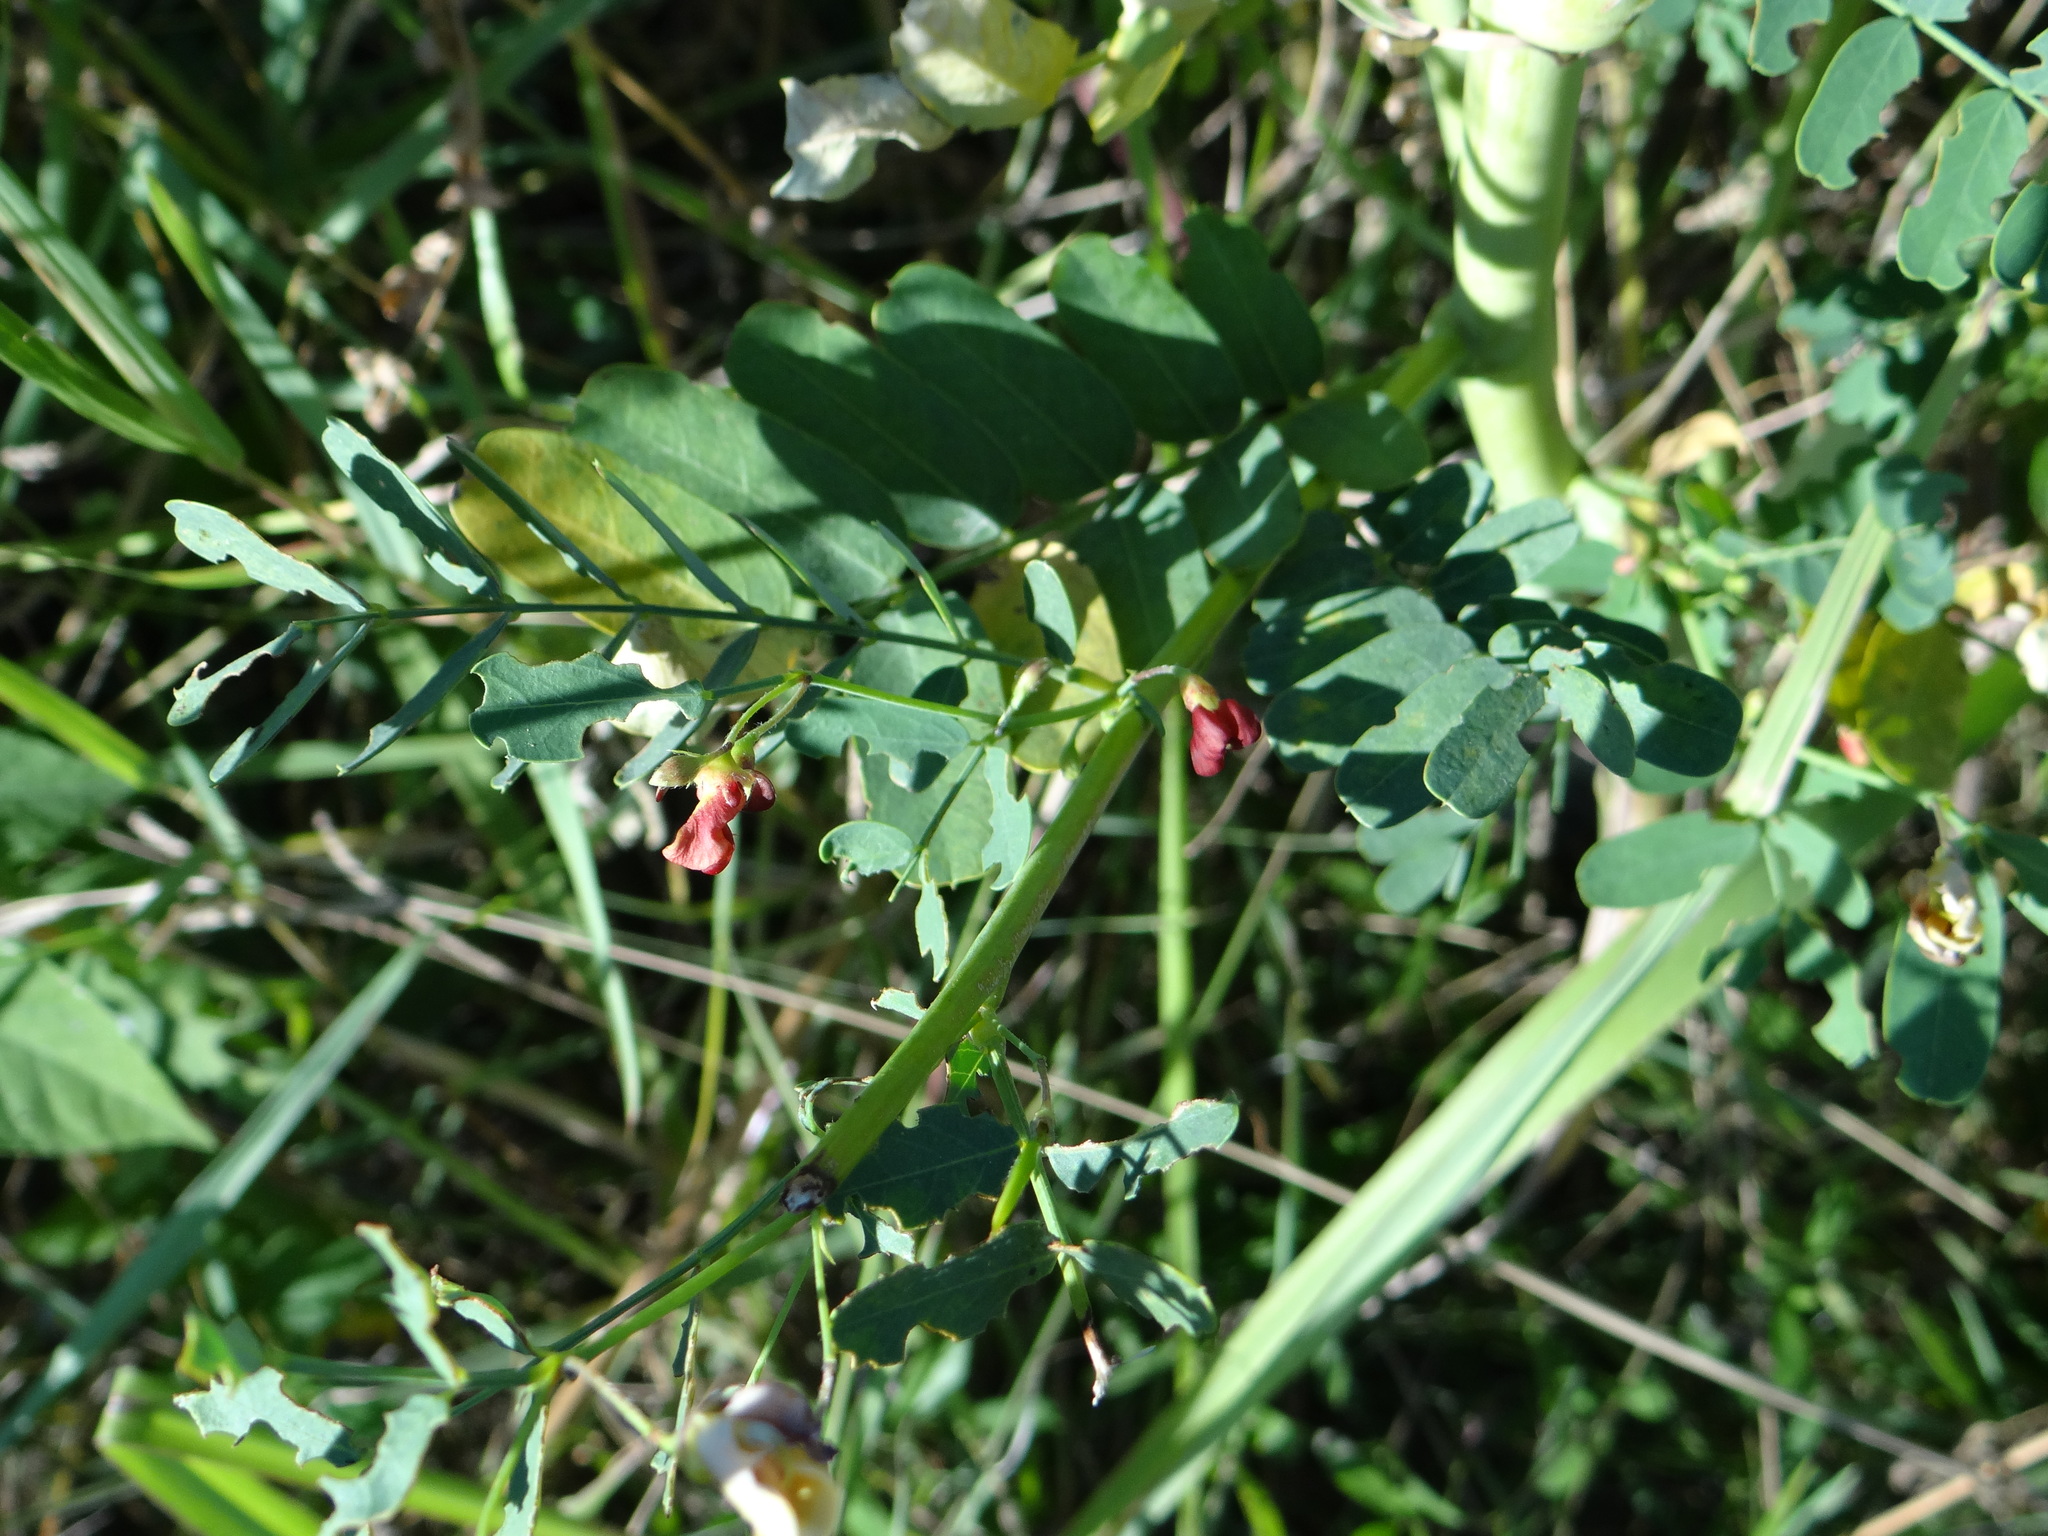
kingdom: Plantae
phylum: Tracheophyta
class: Magnoliopsida
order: Fabales
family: Fabaceae
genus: Sesbania
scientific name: Sesbania vesicaria
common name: Bagpod
